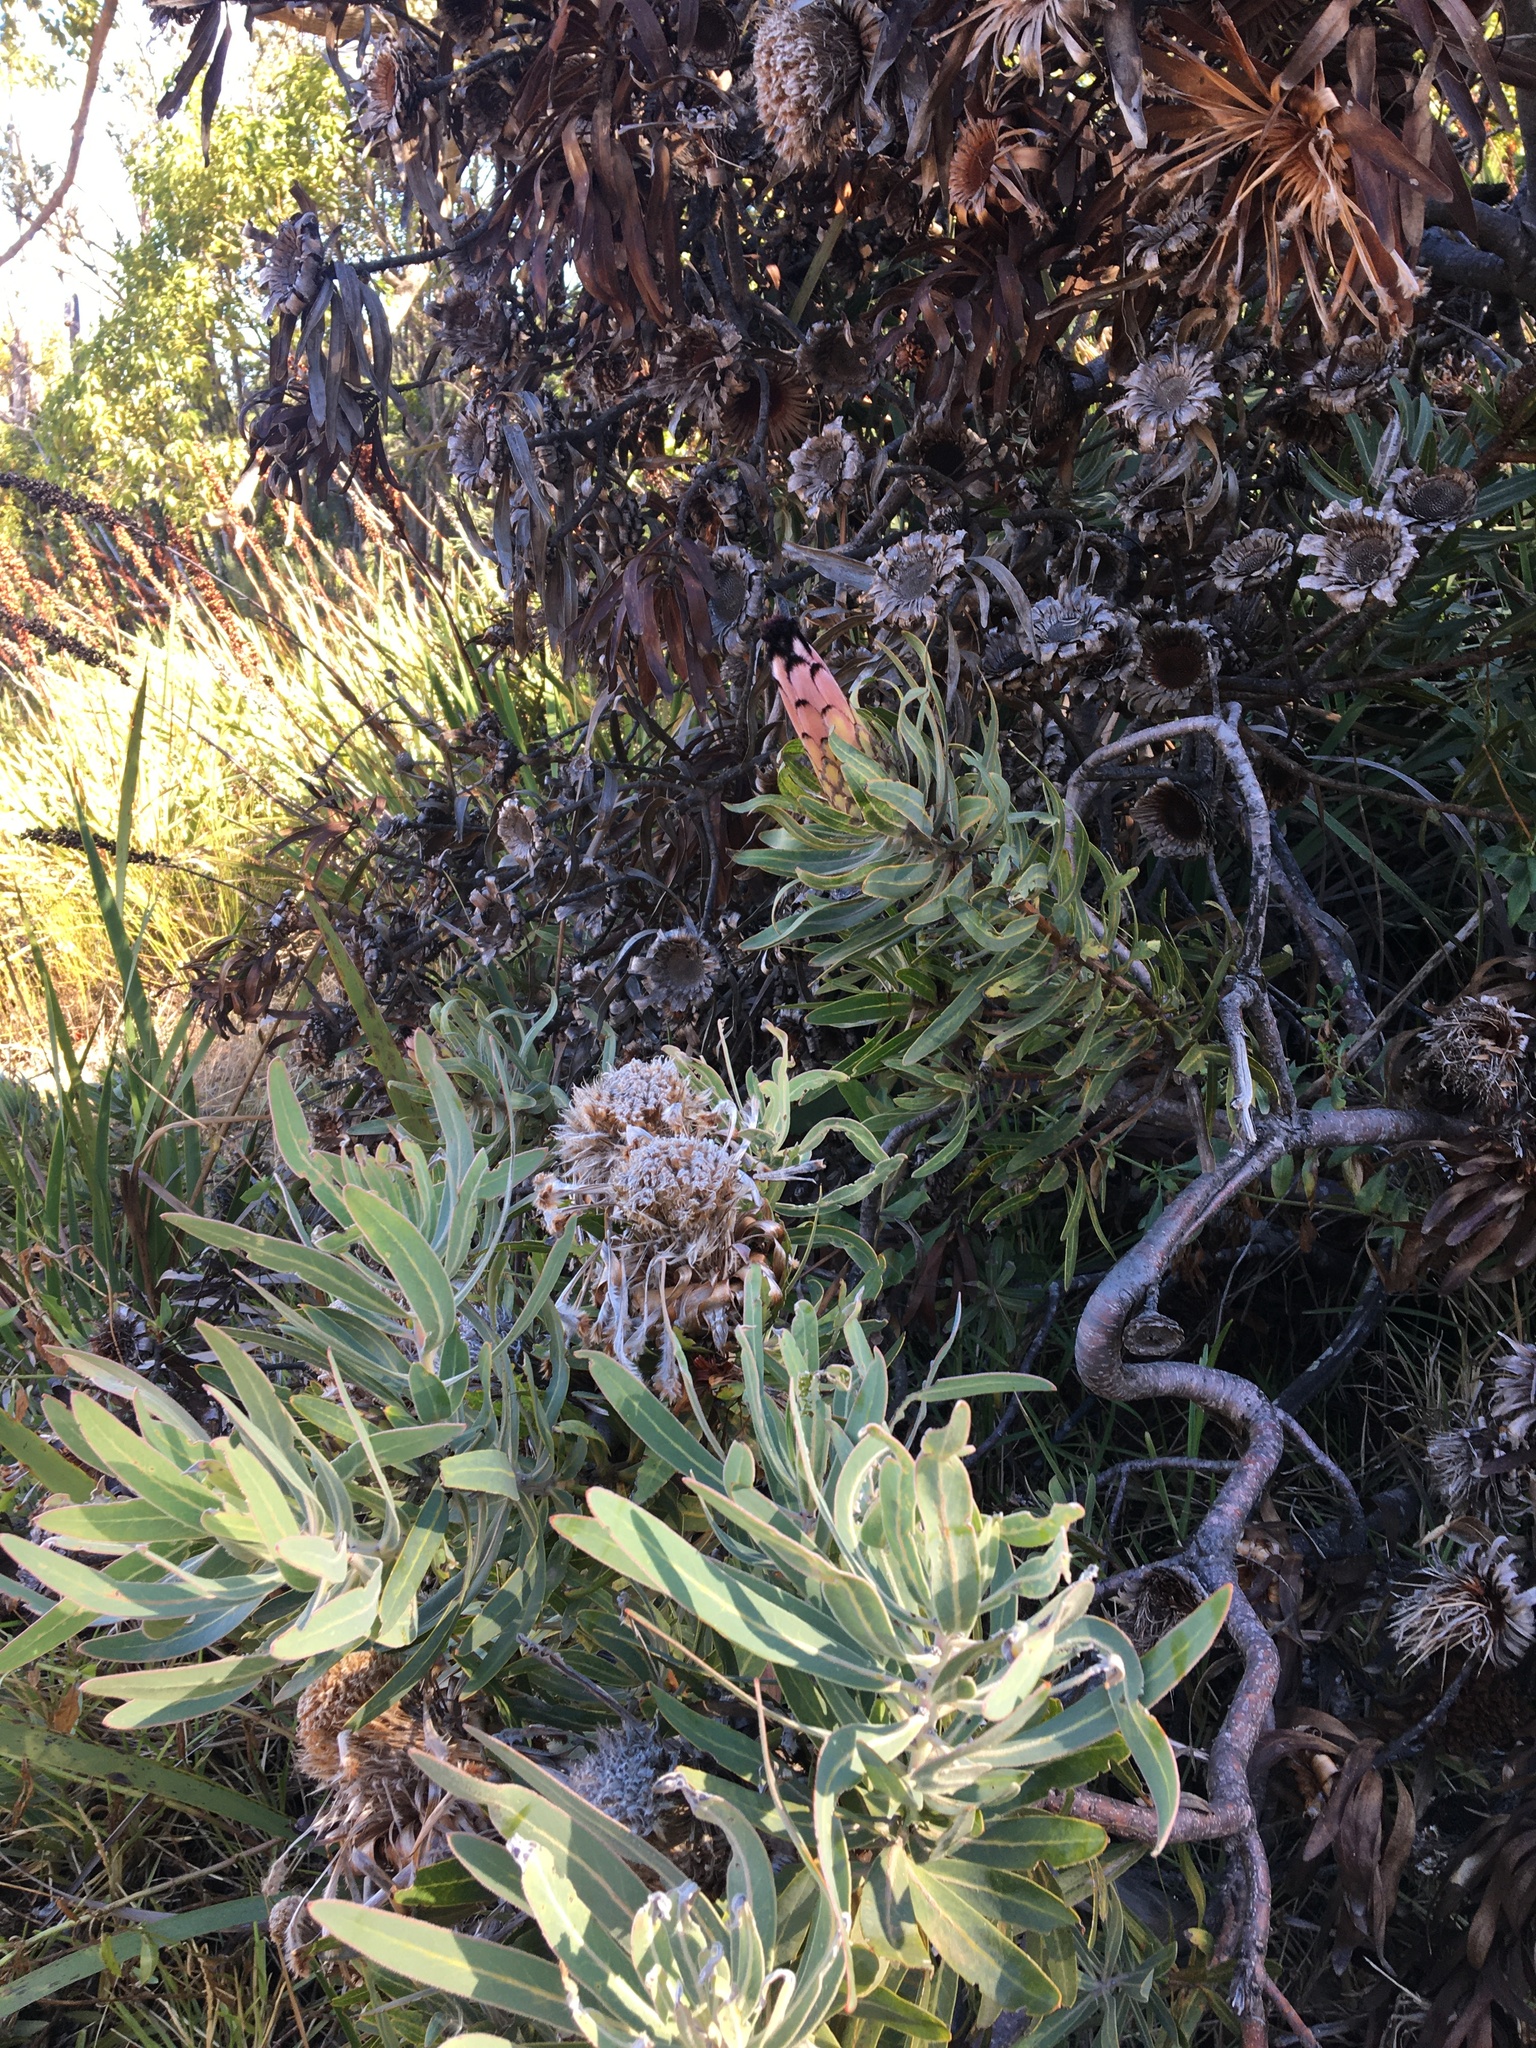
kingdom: Plantae
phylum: Tracheophyta
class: Magnoliopsida
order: Proteales
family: Proteaceae
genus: Protea
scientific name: Protea neriifolia
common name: Blue sugarbush
